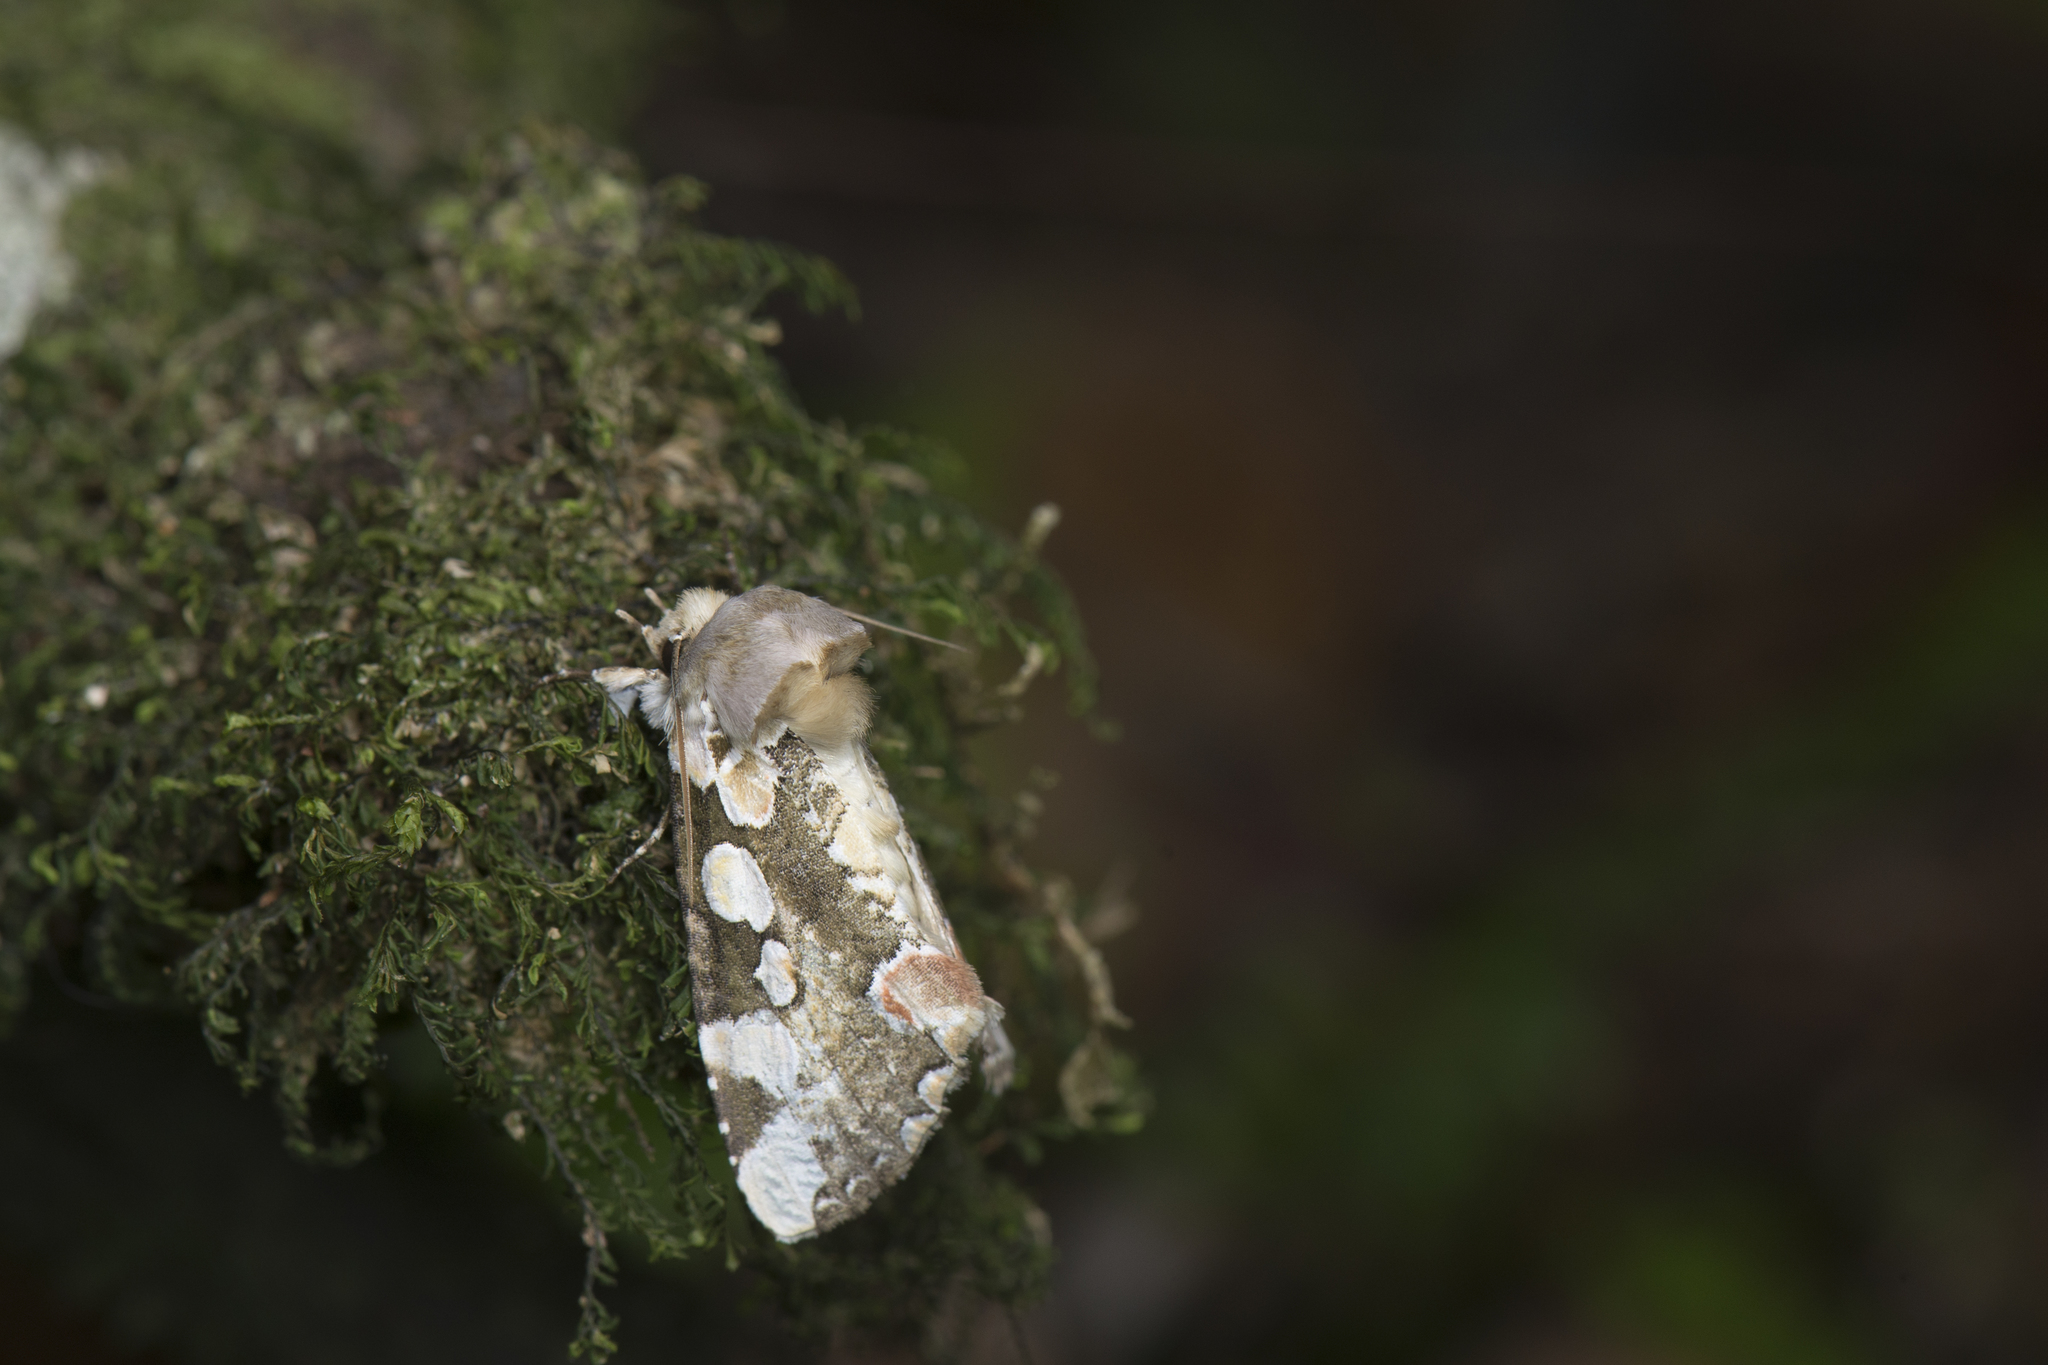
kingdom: Animalia
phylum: Arthropoda
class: Insecta
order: Lepidoptera
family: Drepanidae
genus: Horithyatira
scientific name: Horithyatira takamukui
